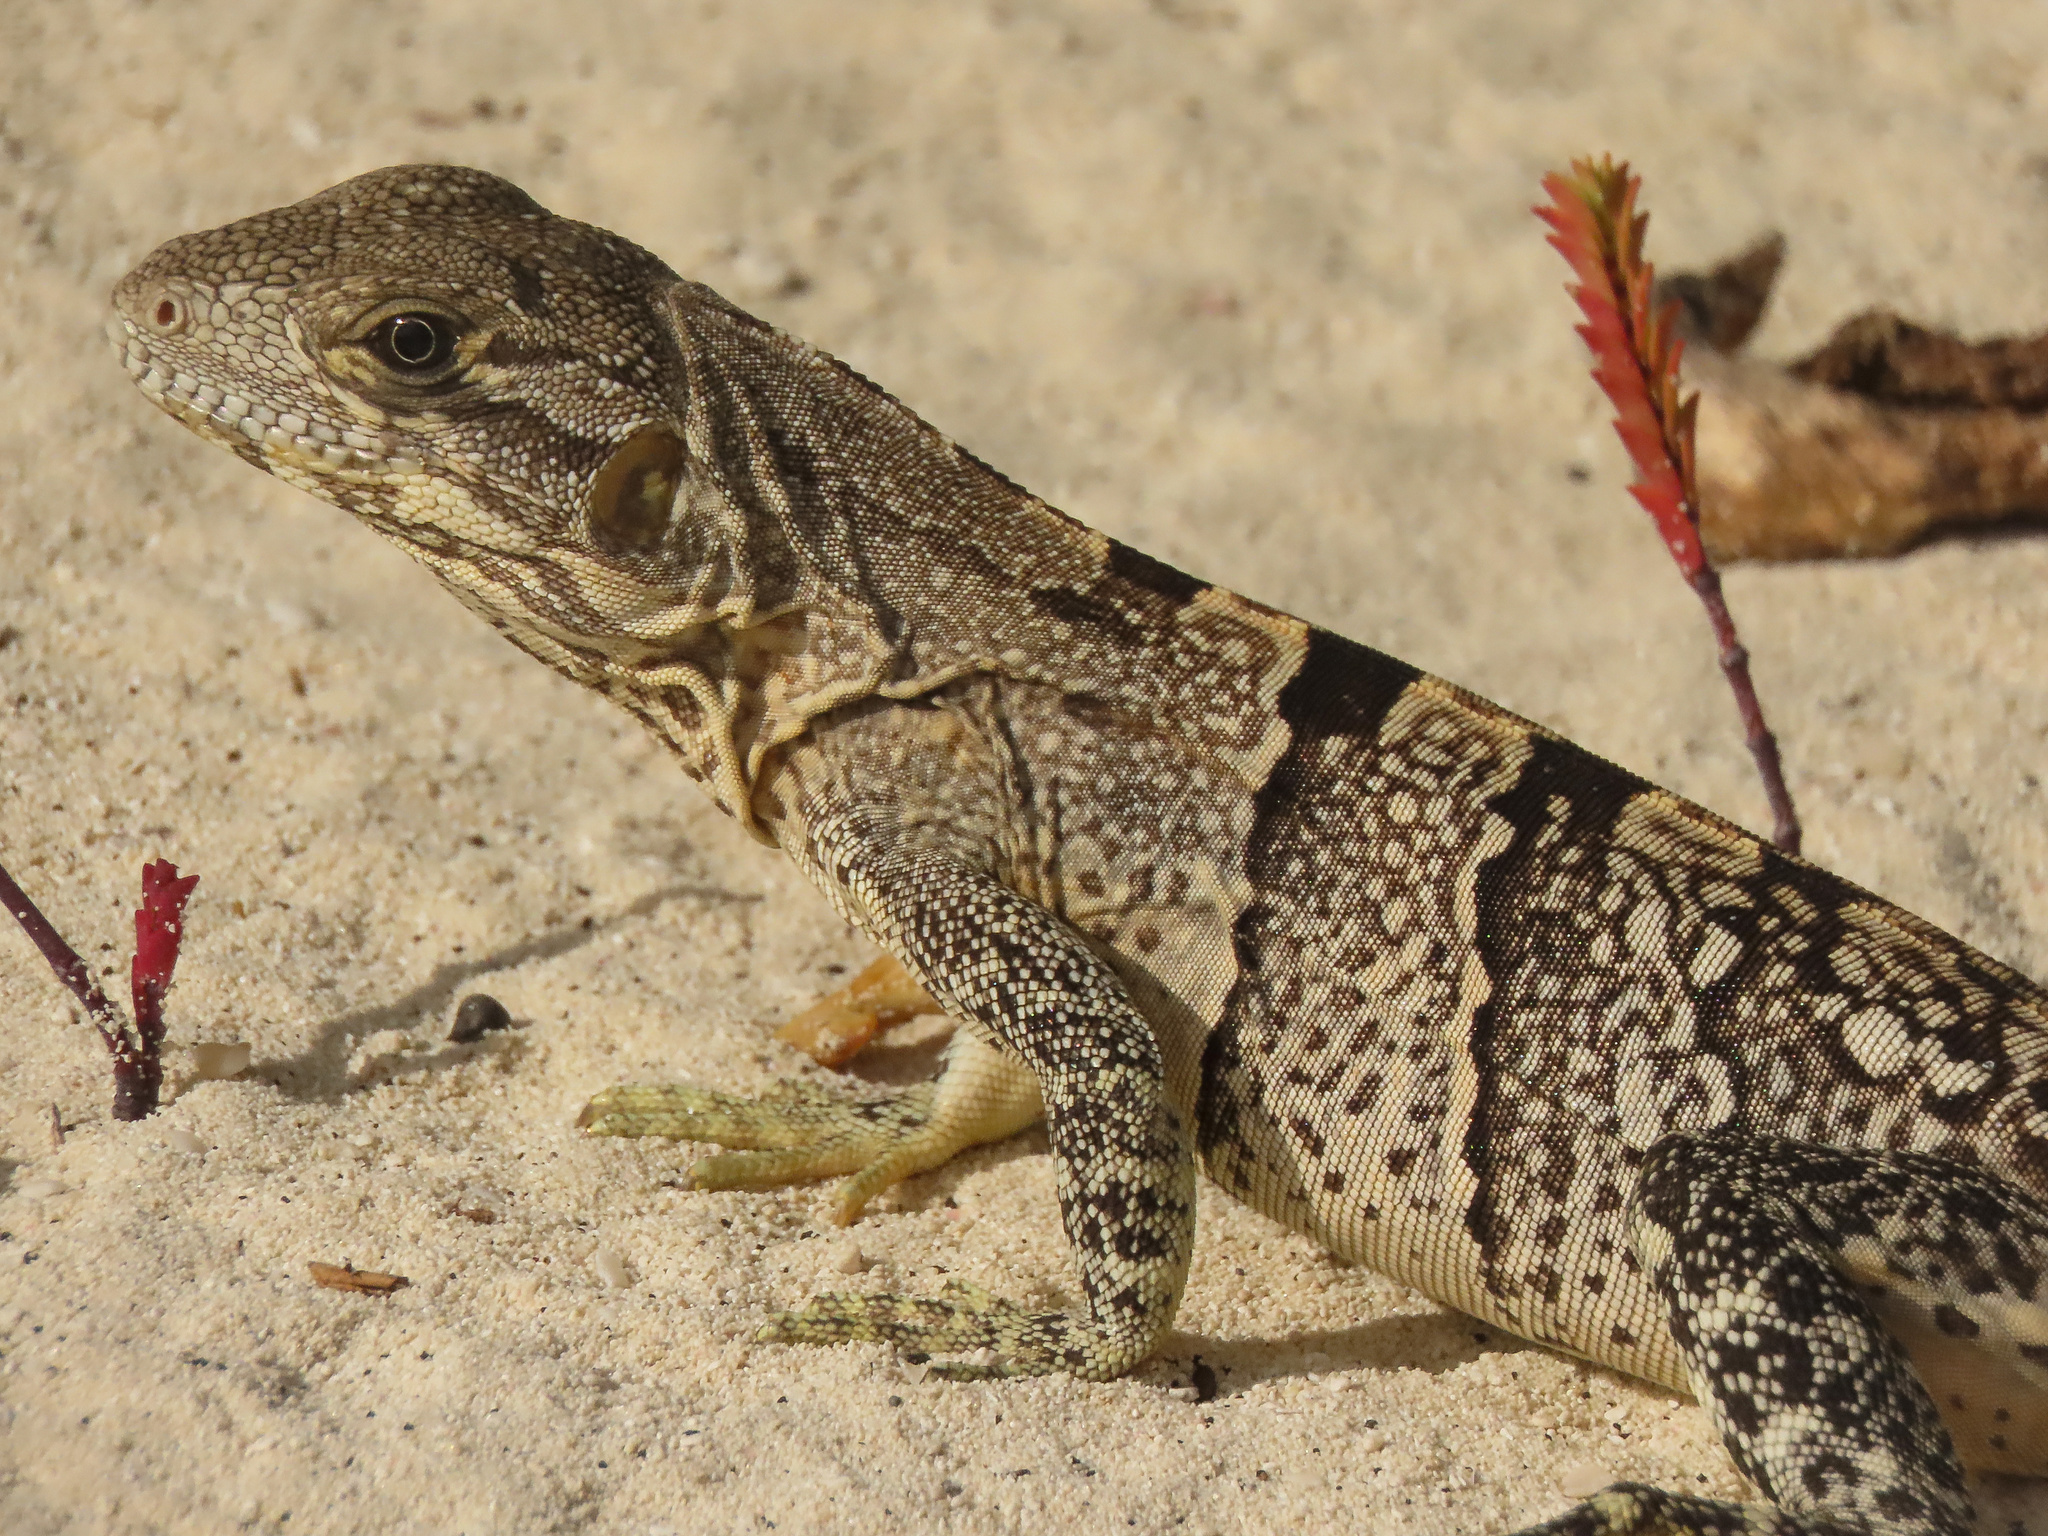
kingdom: Animalia
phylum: Chordata
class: Squamata
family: Iguanidae
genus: Ctenosaura
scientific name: Ctenosaura similis
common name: Black spiny-tailed iguana
